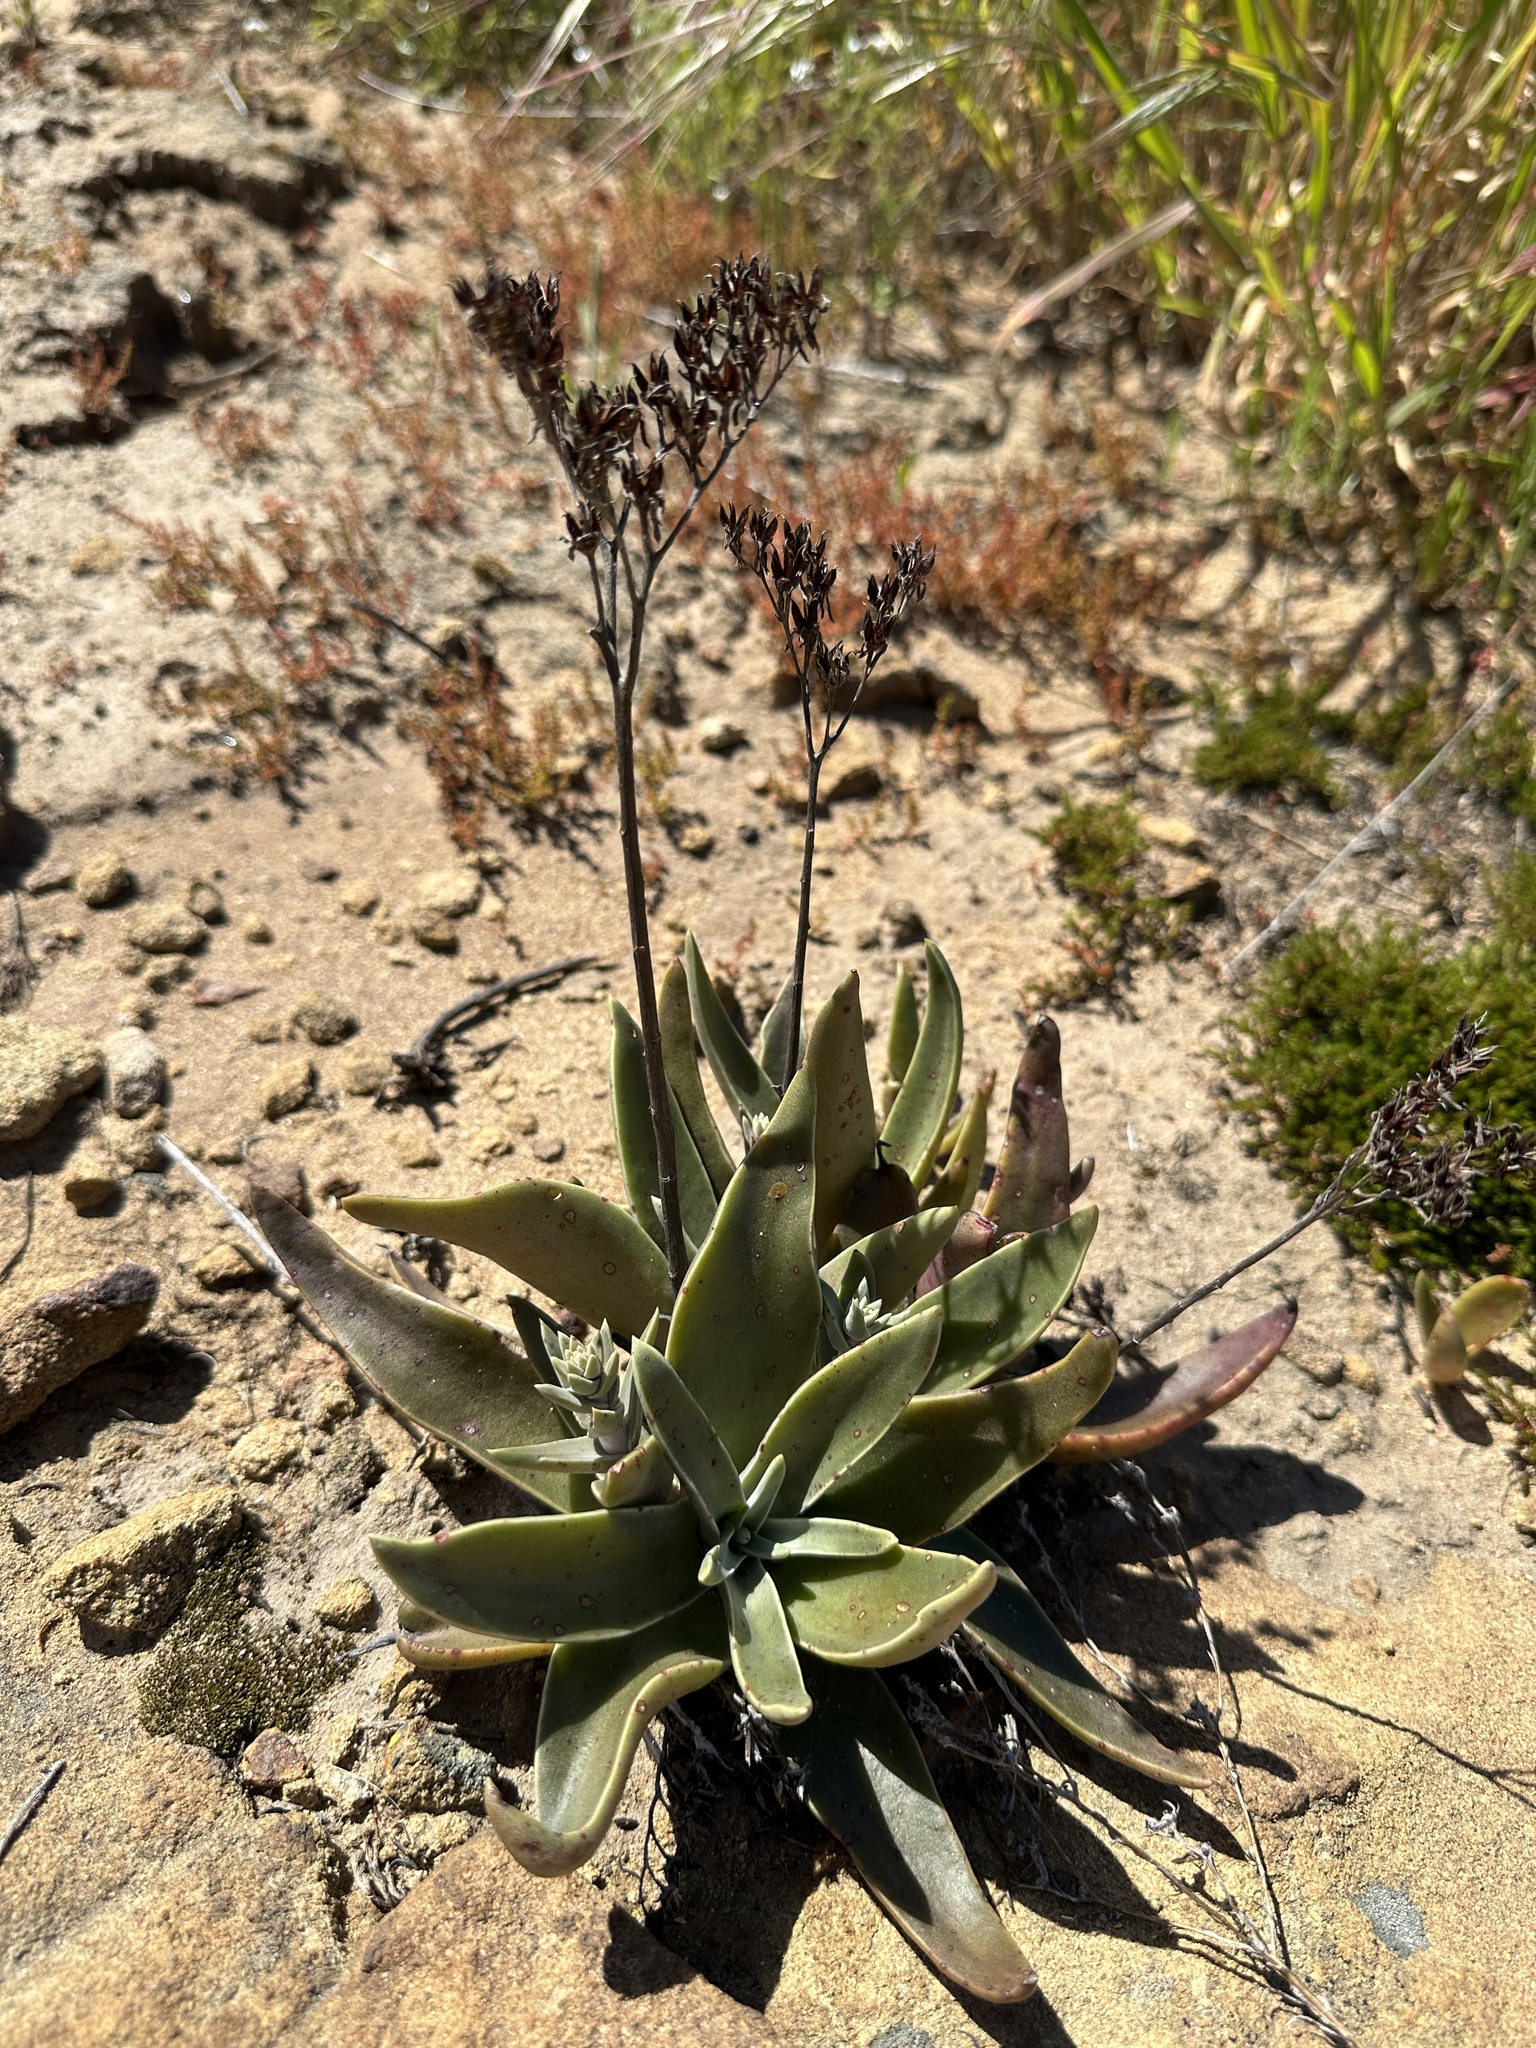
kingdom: Plantae
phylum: Tracheophyta
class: Magnoliopsida
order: Saxifragales
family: Crassulaceae
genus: Dudleya
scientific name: Dudleya lanceolata
